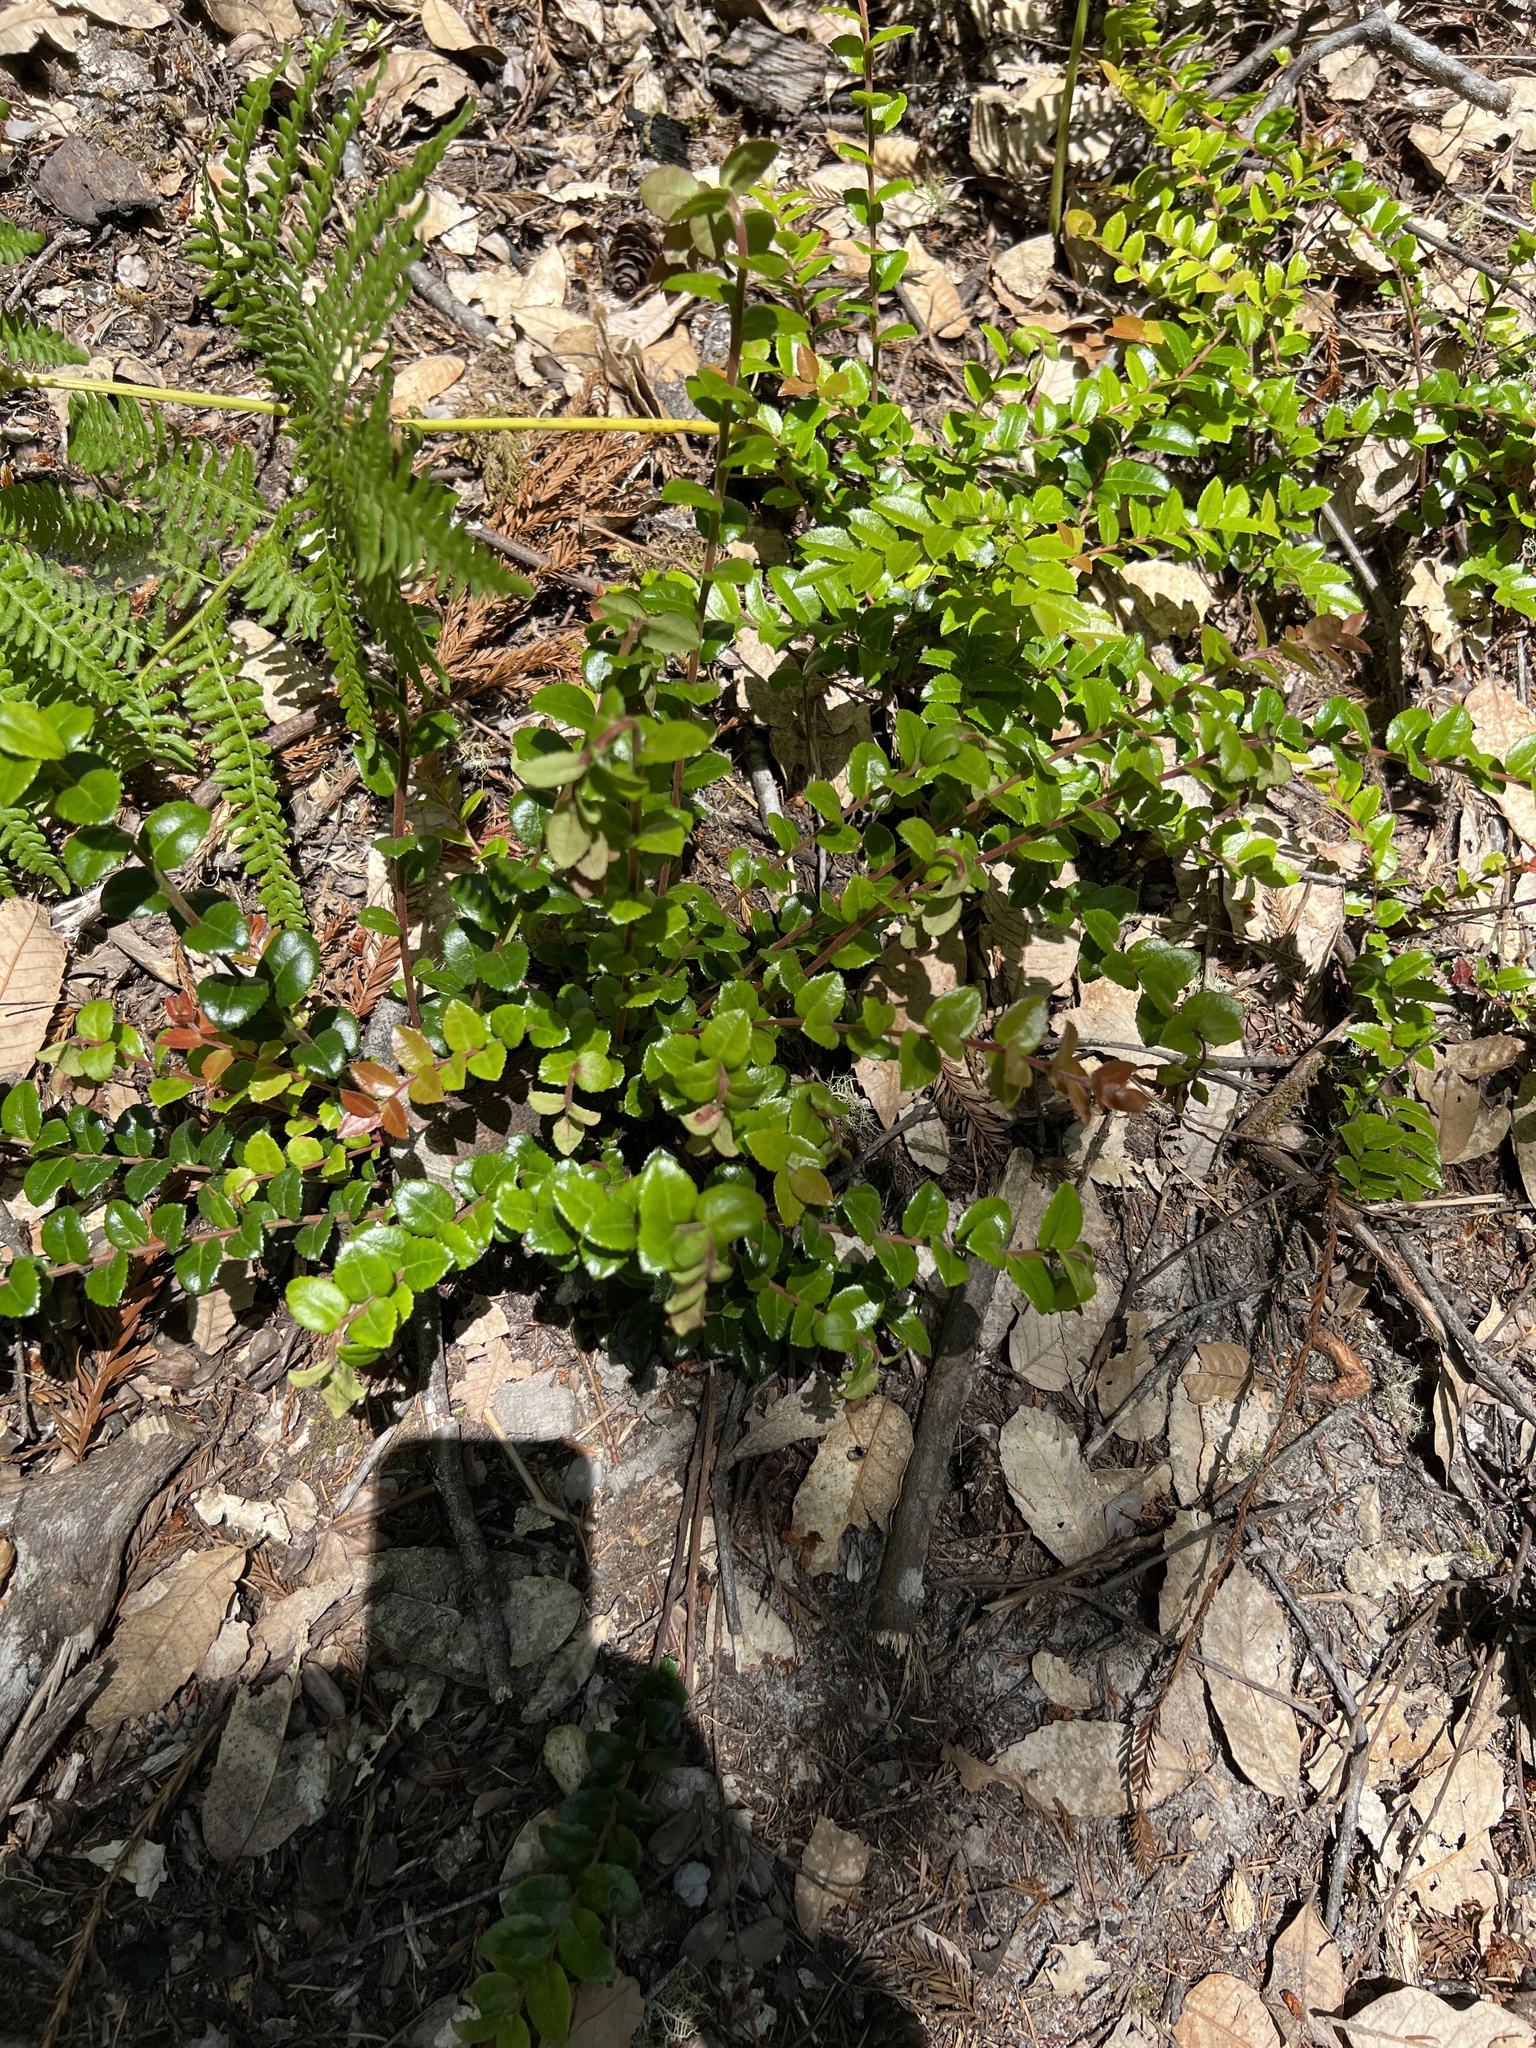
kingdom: Plantae
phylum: Tracheophyta
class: Magnoliopsida
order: Ericales
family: Ericaceae
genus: Vaccinium
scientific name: Vaccinium ovatum
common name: California-huckleberry
